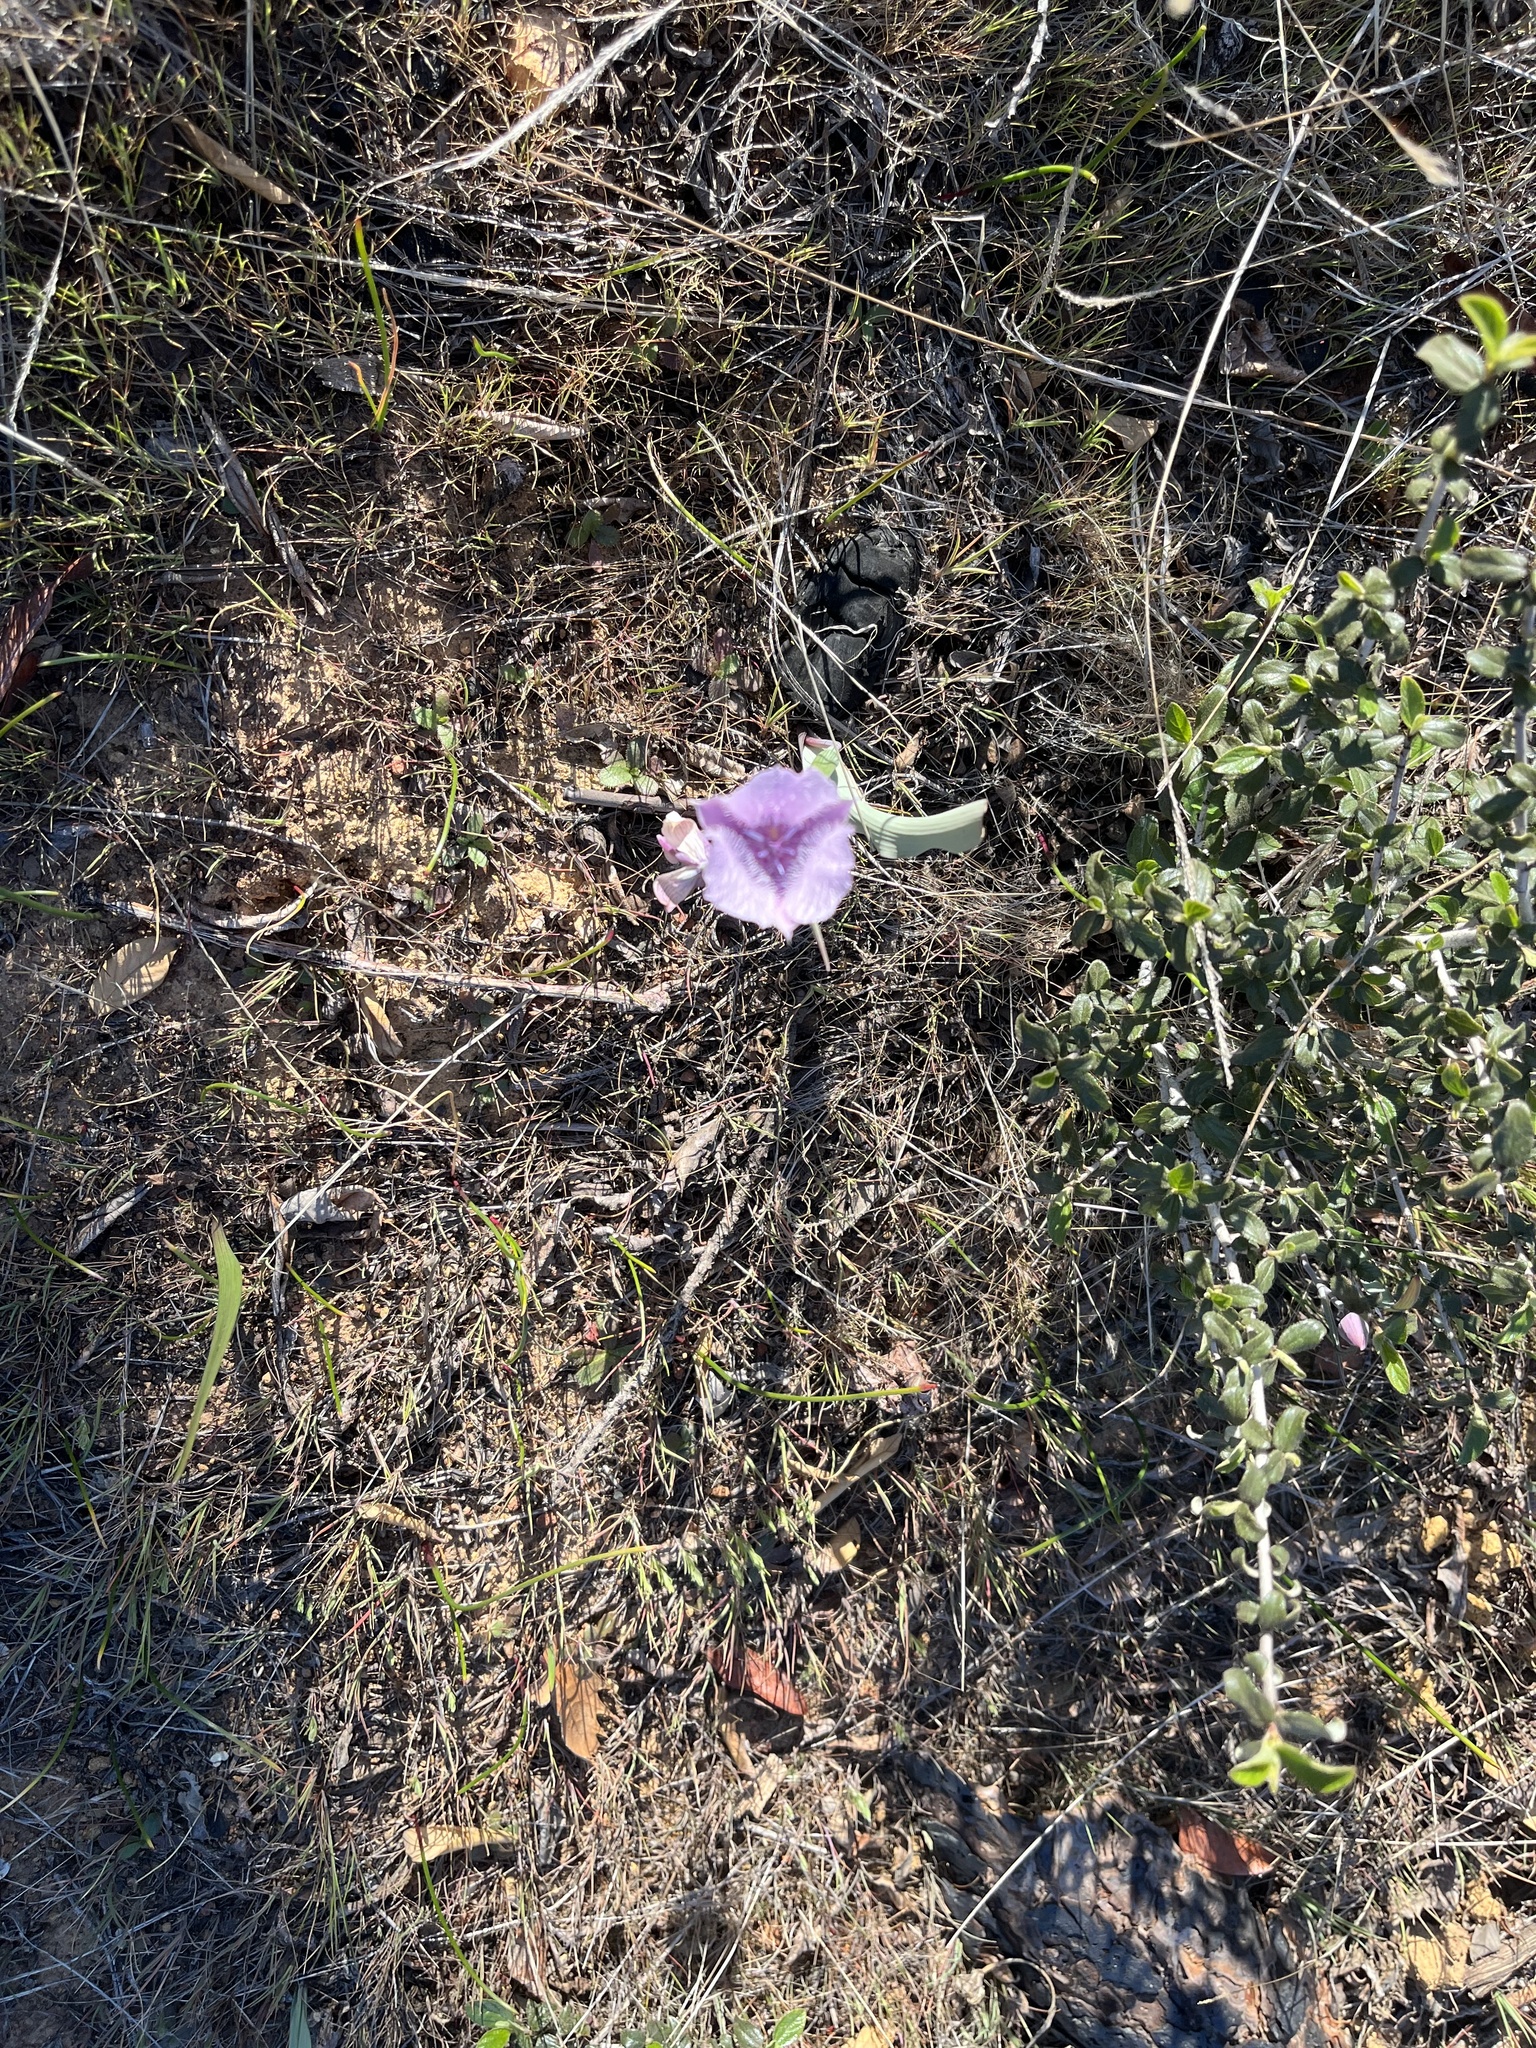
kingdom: Plantae
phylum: Tracheophyta
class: Liliopsida
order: Liliales
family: Liliaceae
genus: Calochortus
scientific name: Calochortus tolmiei
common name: Pussy-ears
